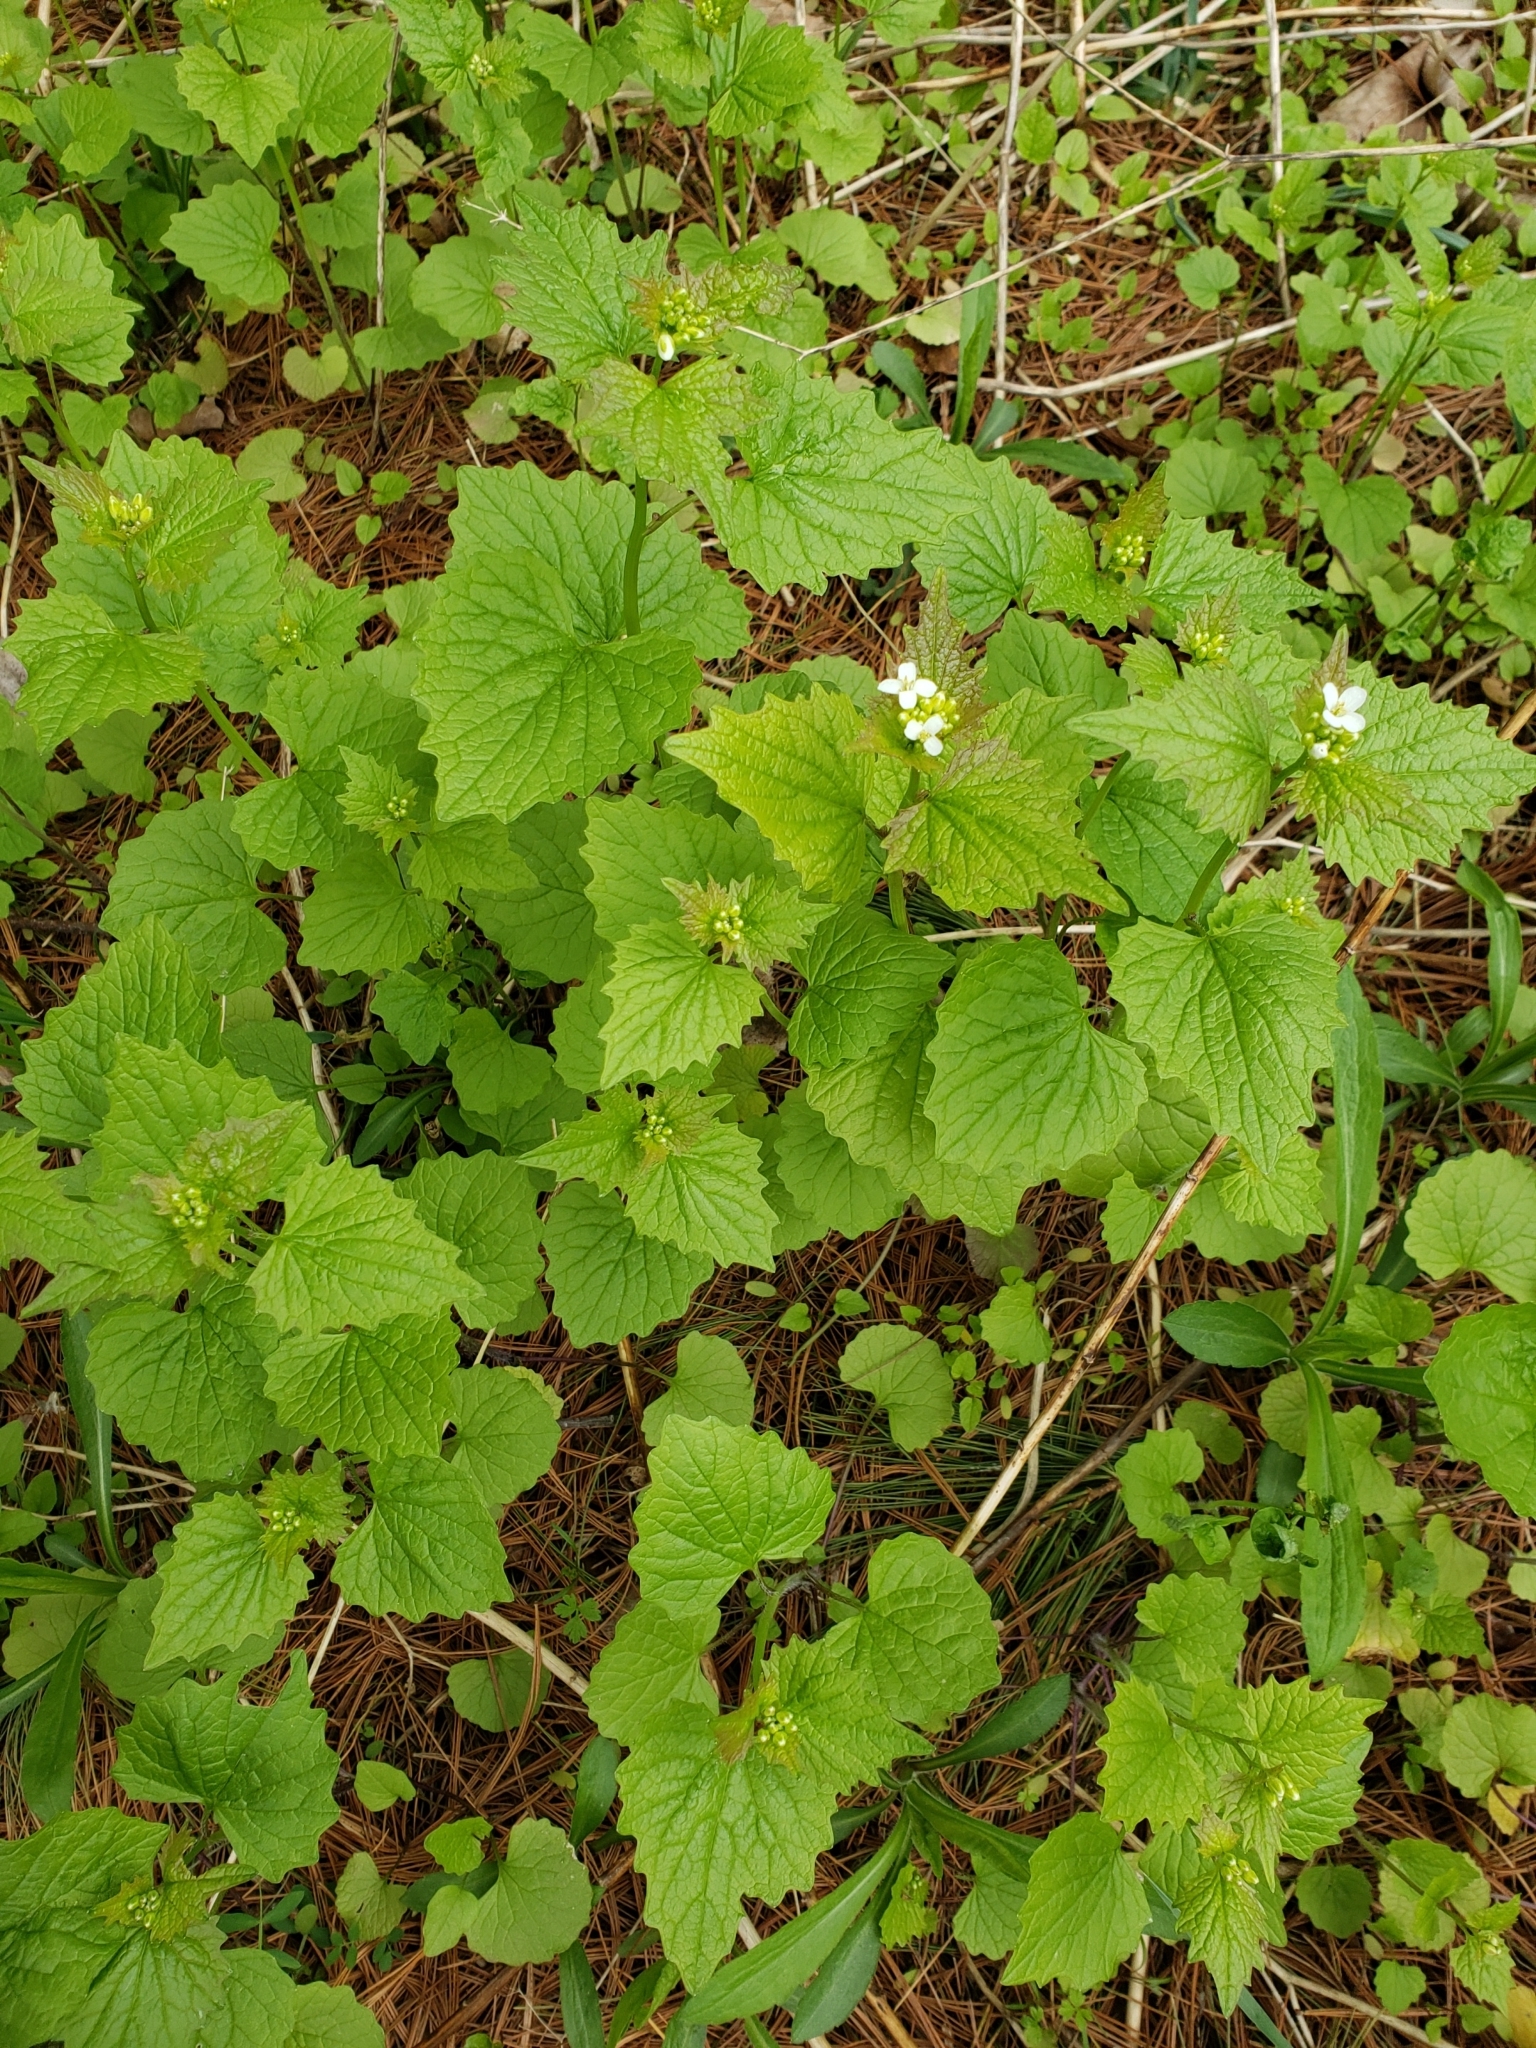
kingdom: Plantae
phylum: Tracheophyta
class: Magnoliopsida
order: Brassicales
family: Brassicaceae
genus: Alliaria
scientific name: Alliaria petiolata
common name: Garlic mustard
